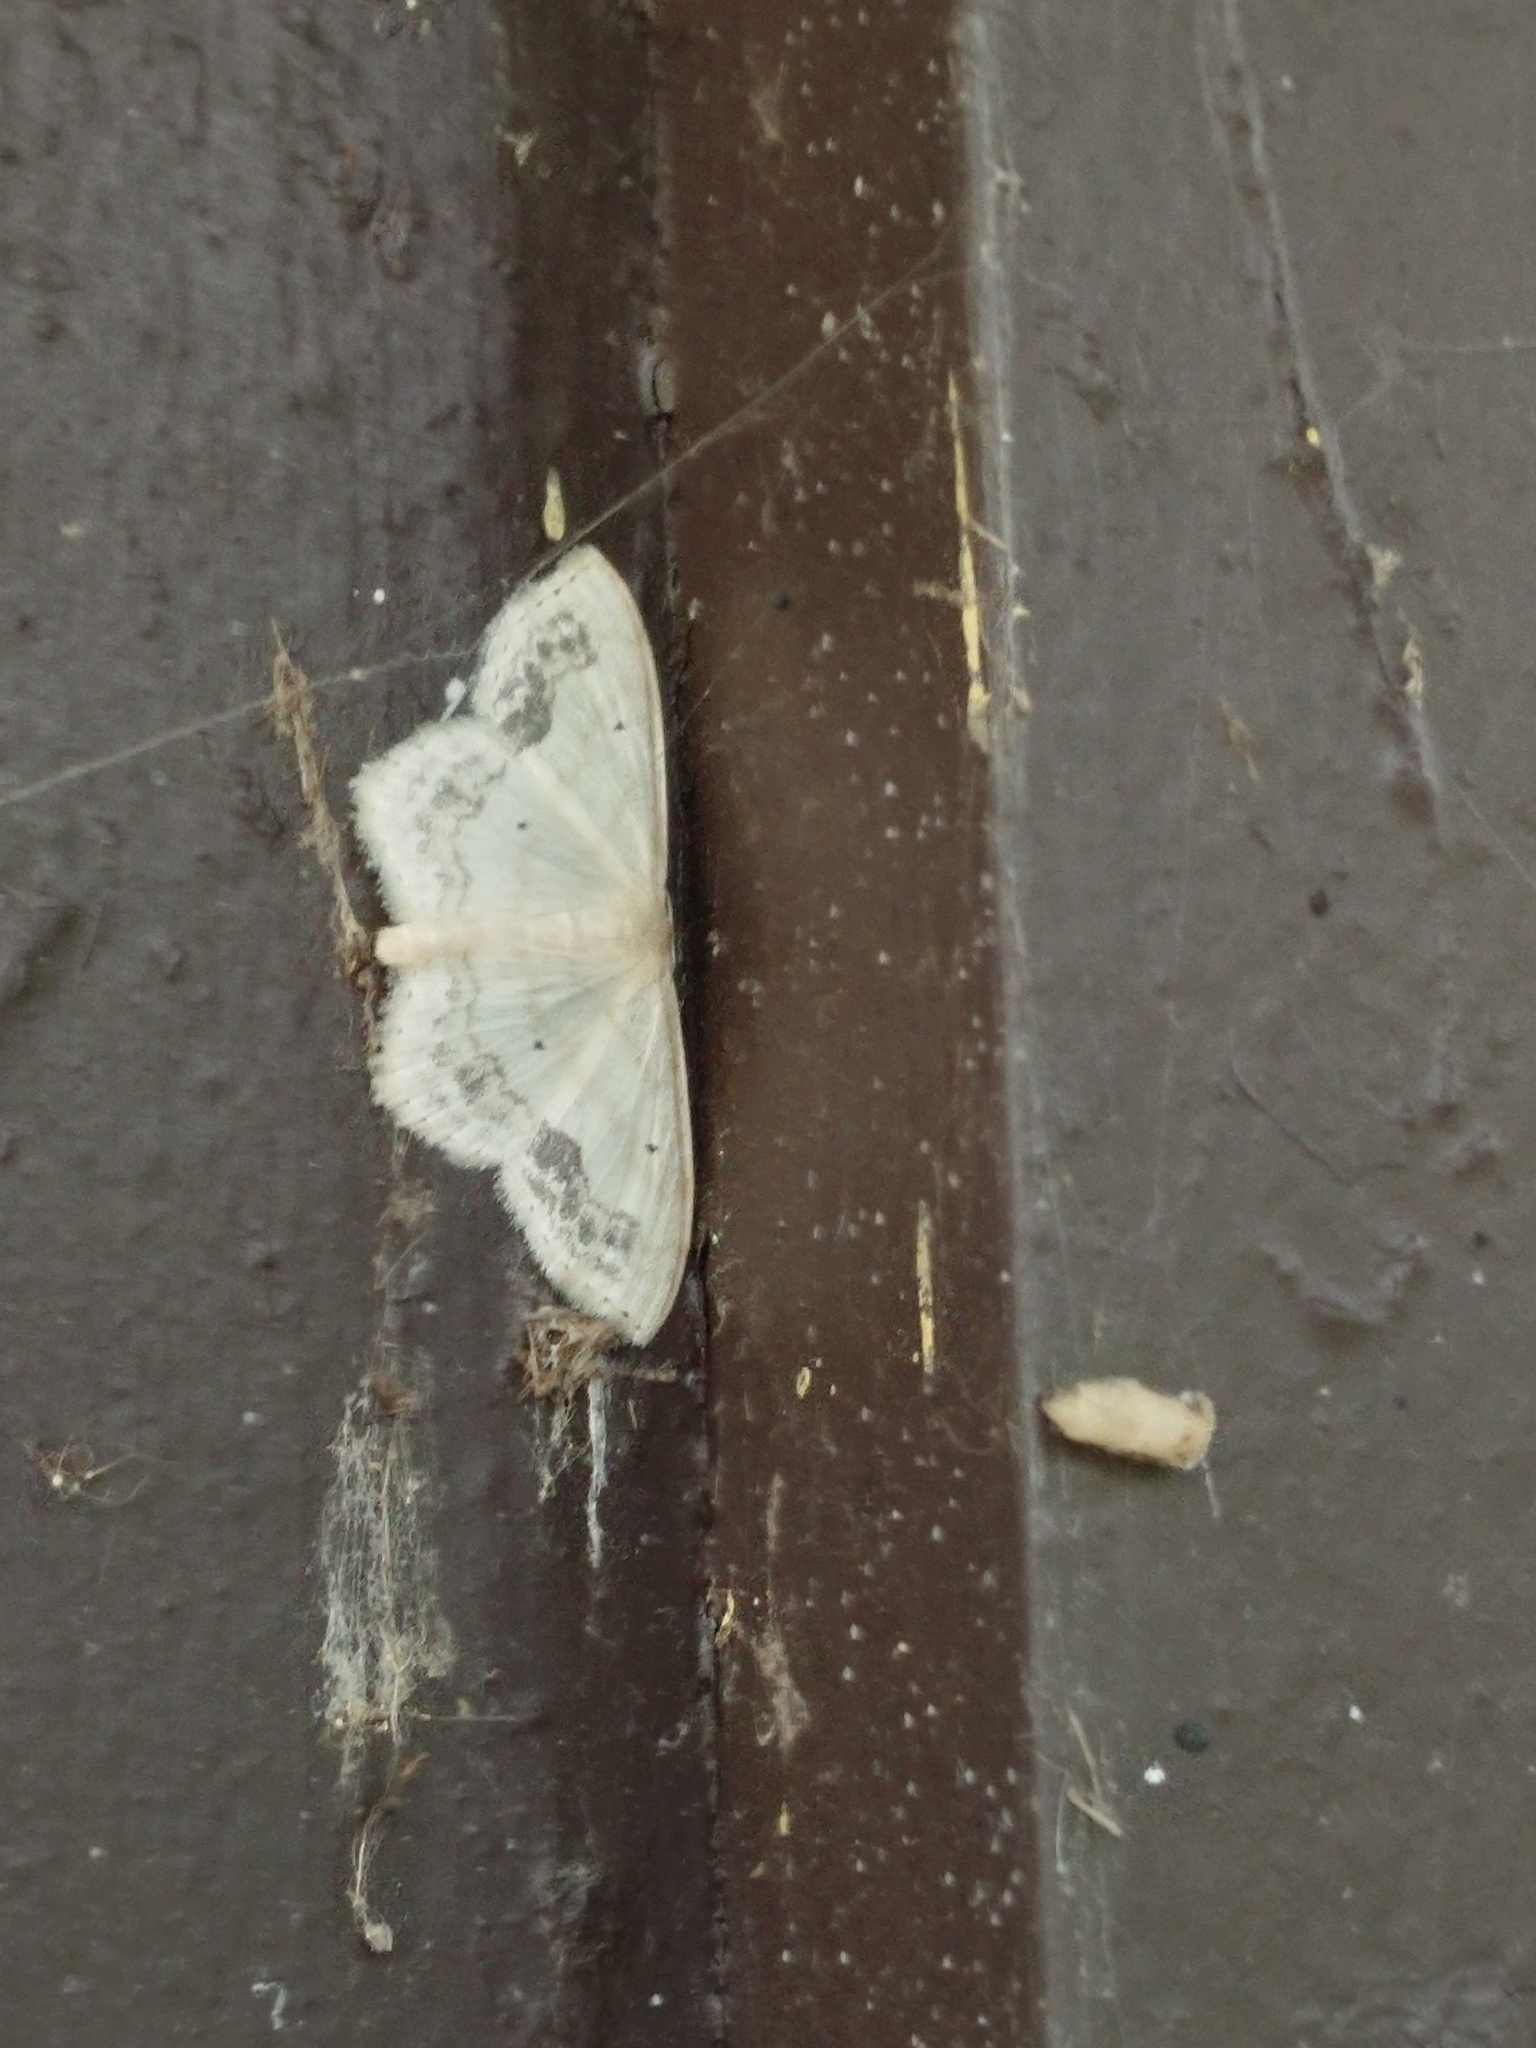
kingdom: Animalia
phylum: Arthropoda
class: Insecta
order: Lepidoptera
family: Geometridae
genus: Scopula
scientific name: Scopula limboundata
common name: Large lace border
